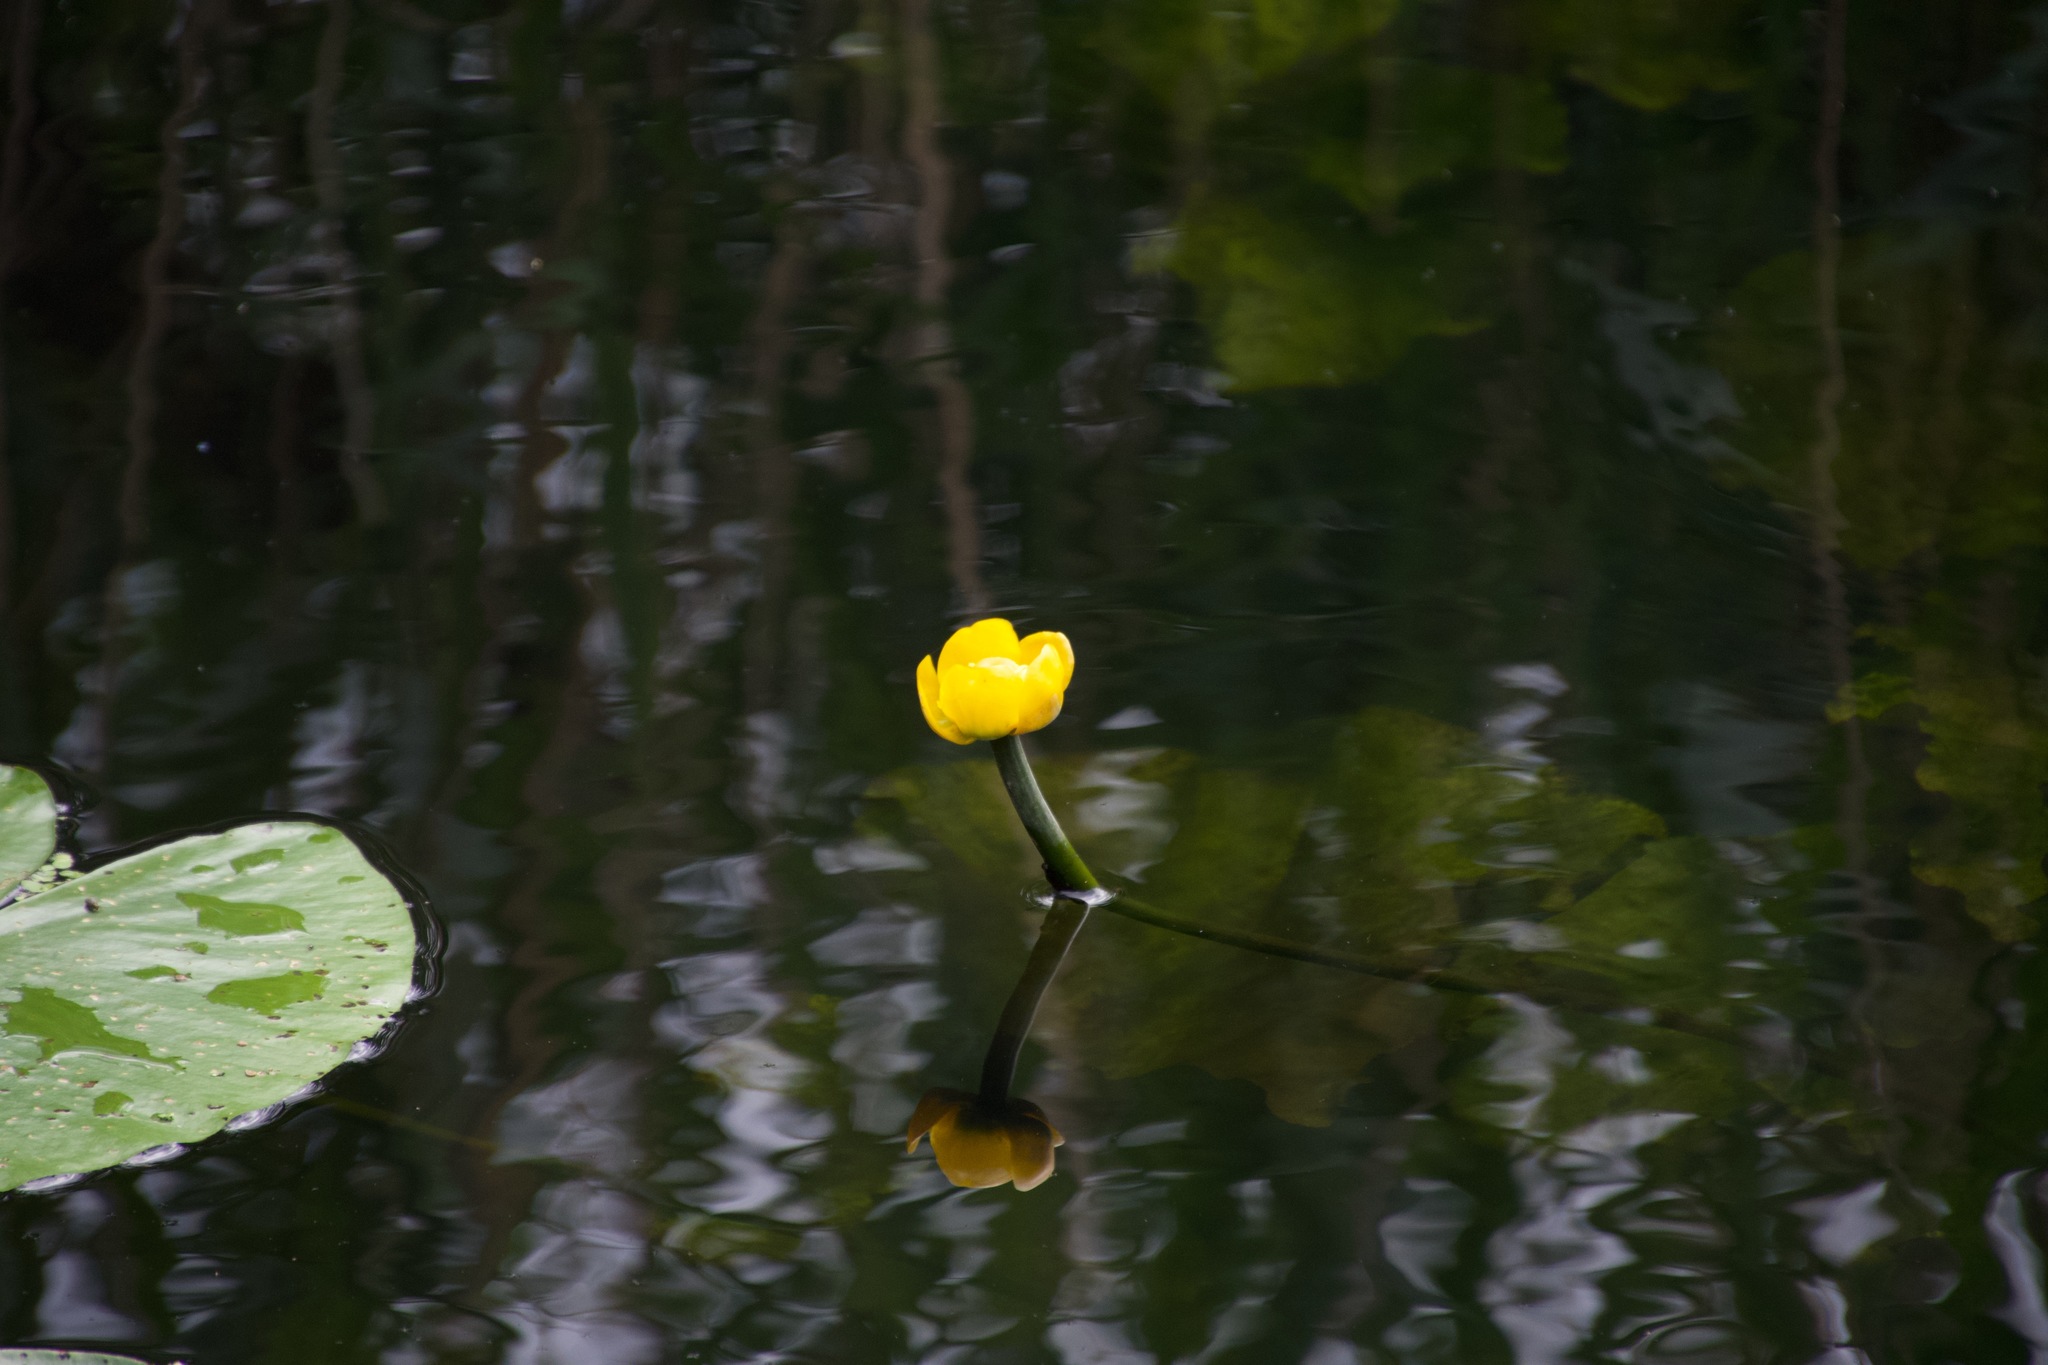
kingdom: Plantae
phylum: Tracheophyta
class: Magnoliopsida
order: Nymphaeales
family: Nymphaeaceae
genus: Nuphar
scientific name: Nuphar lutea
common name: Yellow water-lily
